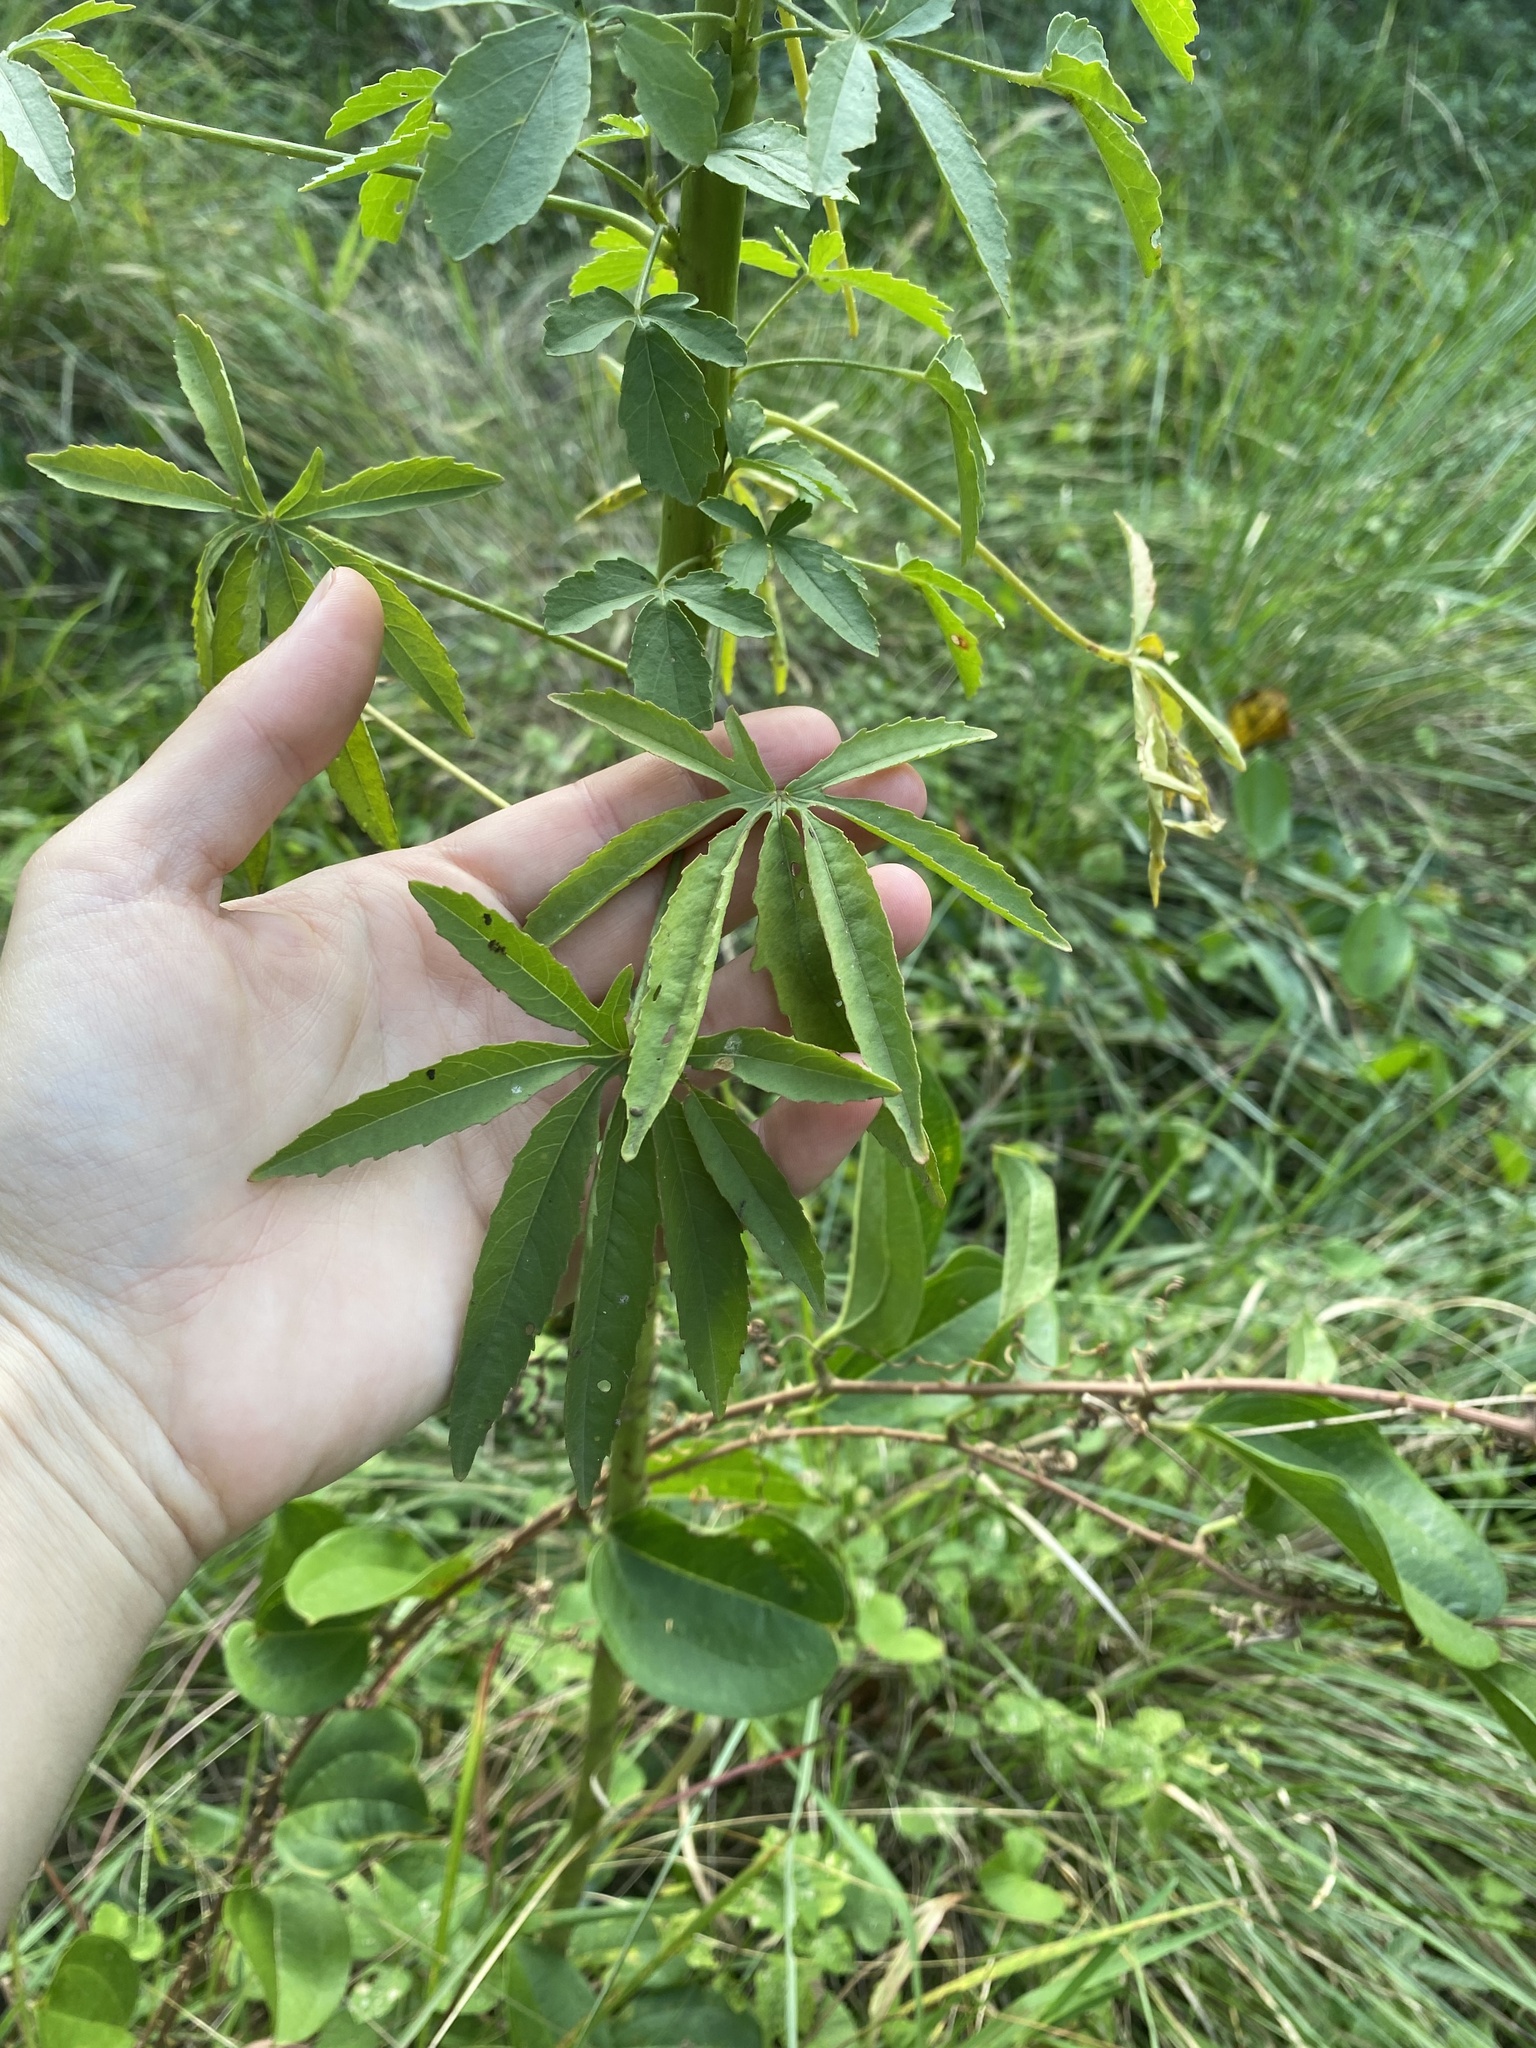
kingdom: Plantae
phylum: Tracheophyta
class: Magnoliopsida
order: Malvales
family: Malvaceae
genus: Hibiscus
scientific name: Hibiscus cannabinus
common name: Brown indianhemp
